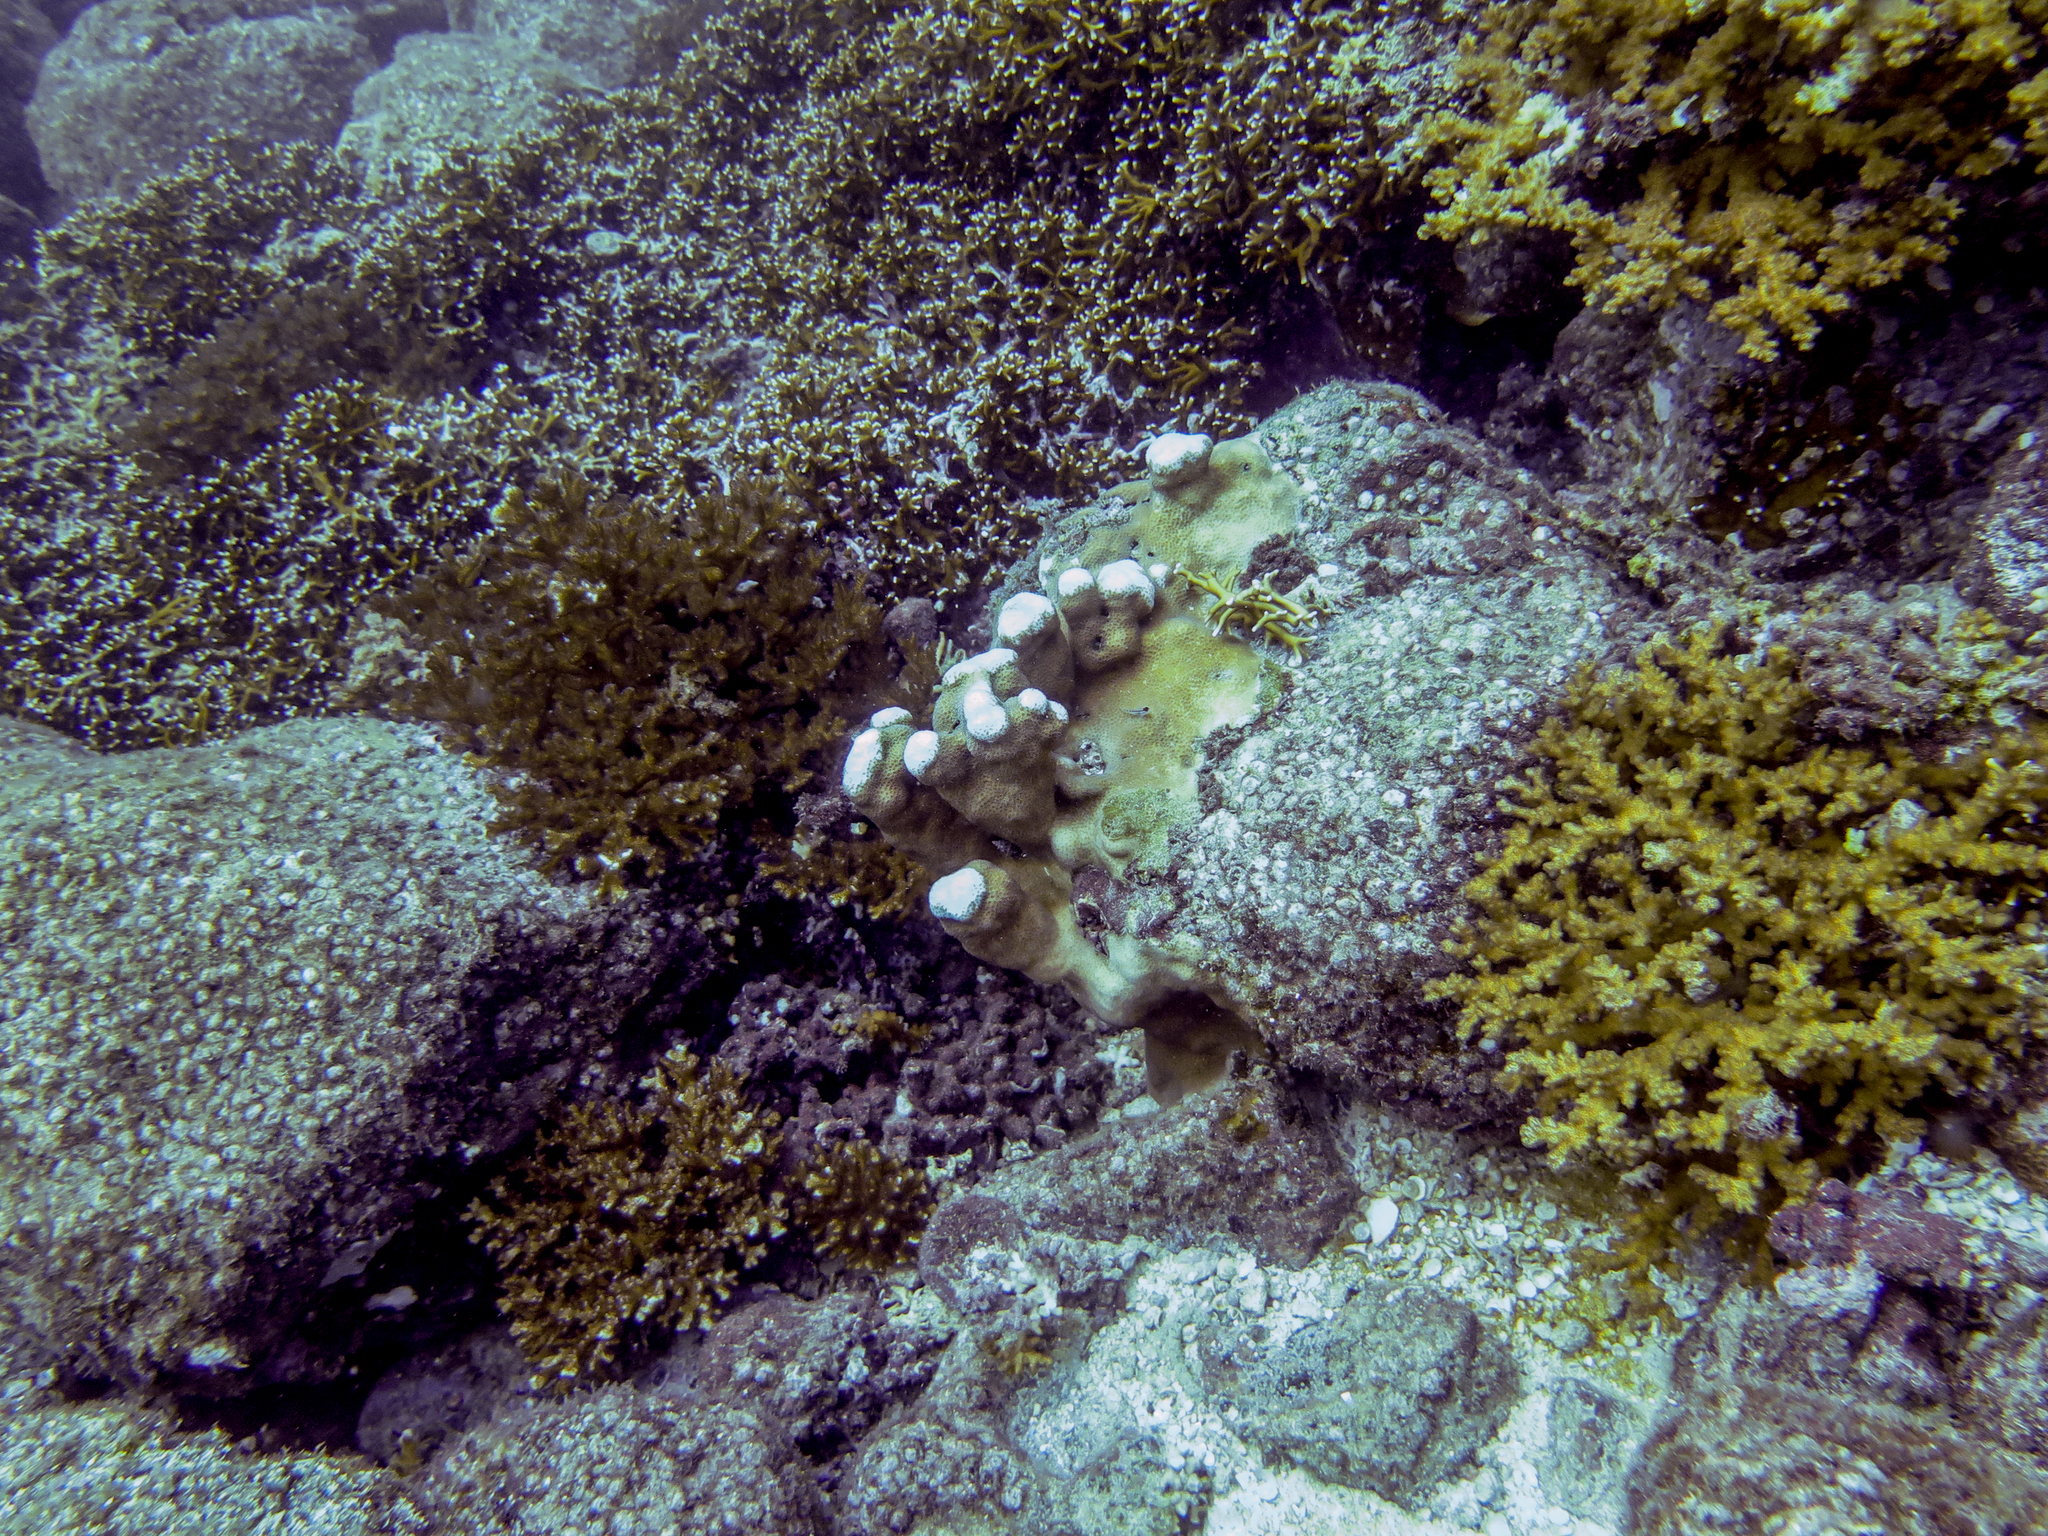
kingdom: Animalia
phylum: Cnidaria
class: Anthozoa
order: Scleractinia
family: Agariciidae
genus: Pavona
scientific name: Pavona clavus
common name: Leaf coral
